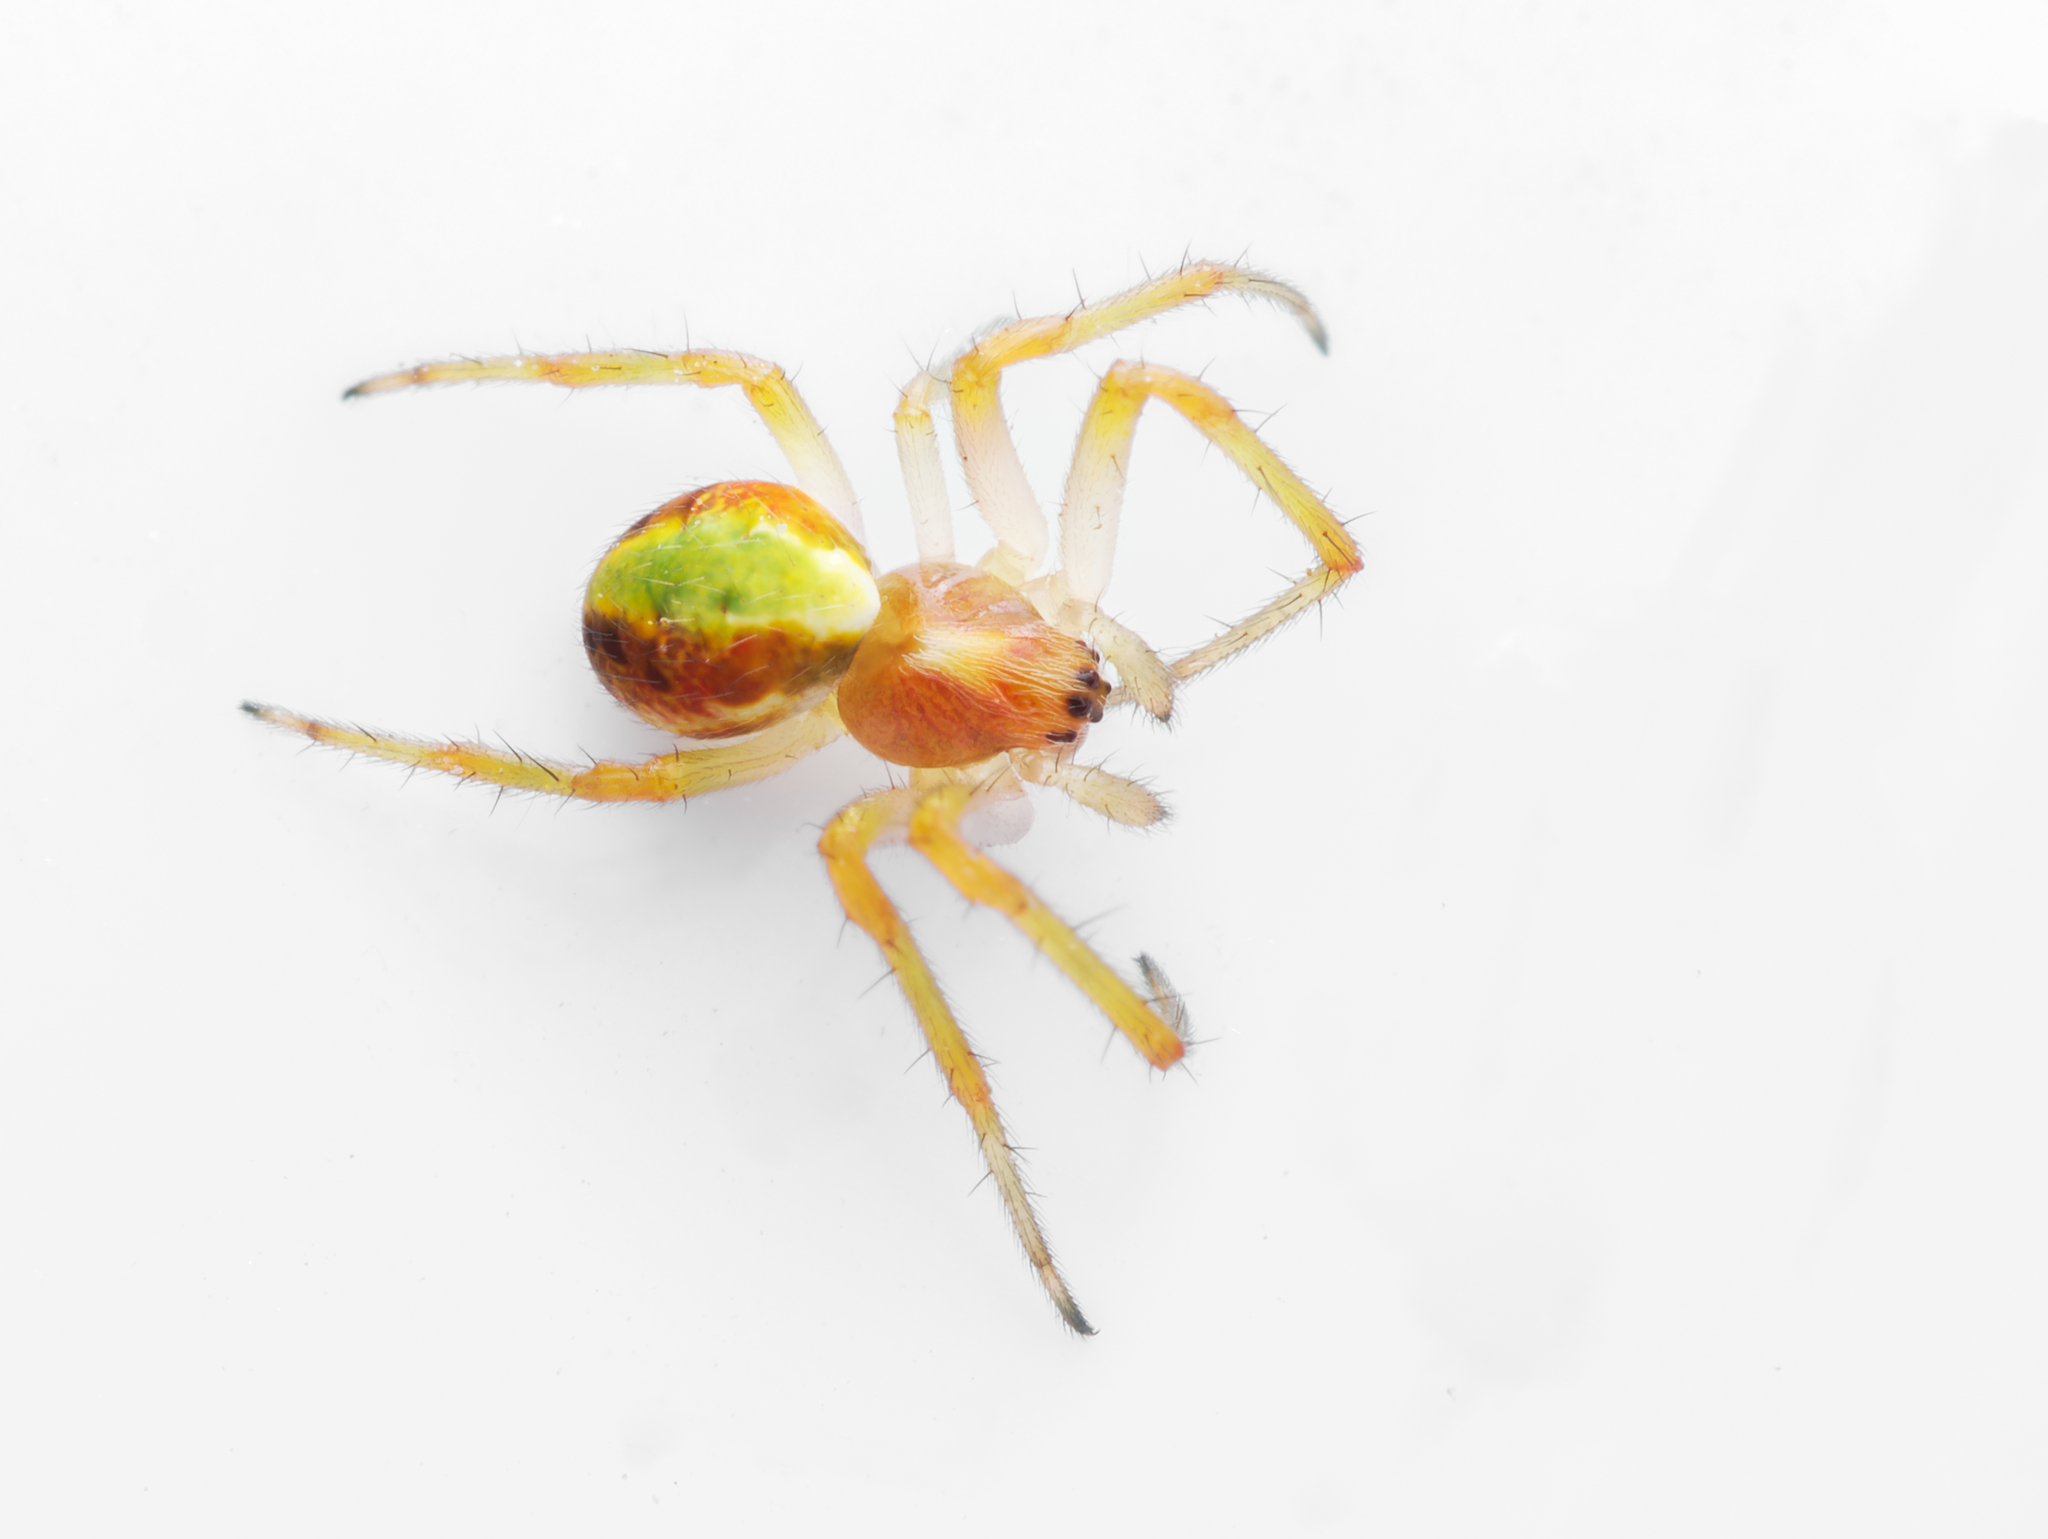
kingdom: Animalia
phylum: Arthropoda
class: Arachnida
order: Araneae
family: Araneidae
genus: Novaranea
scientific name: Novaranea queribunda
